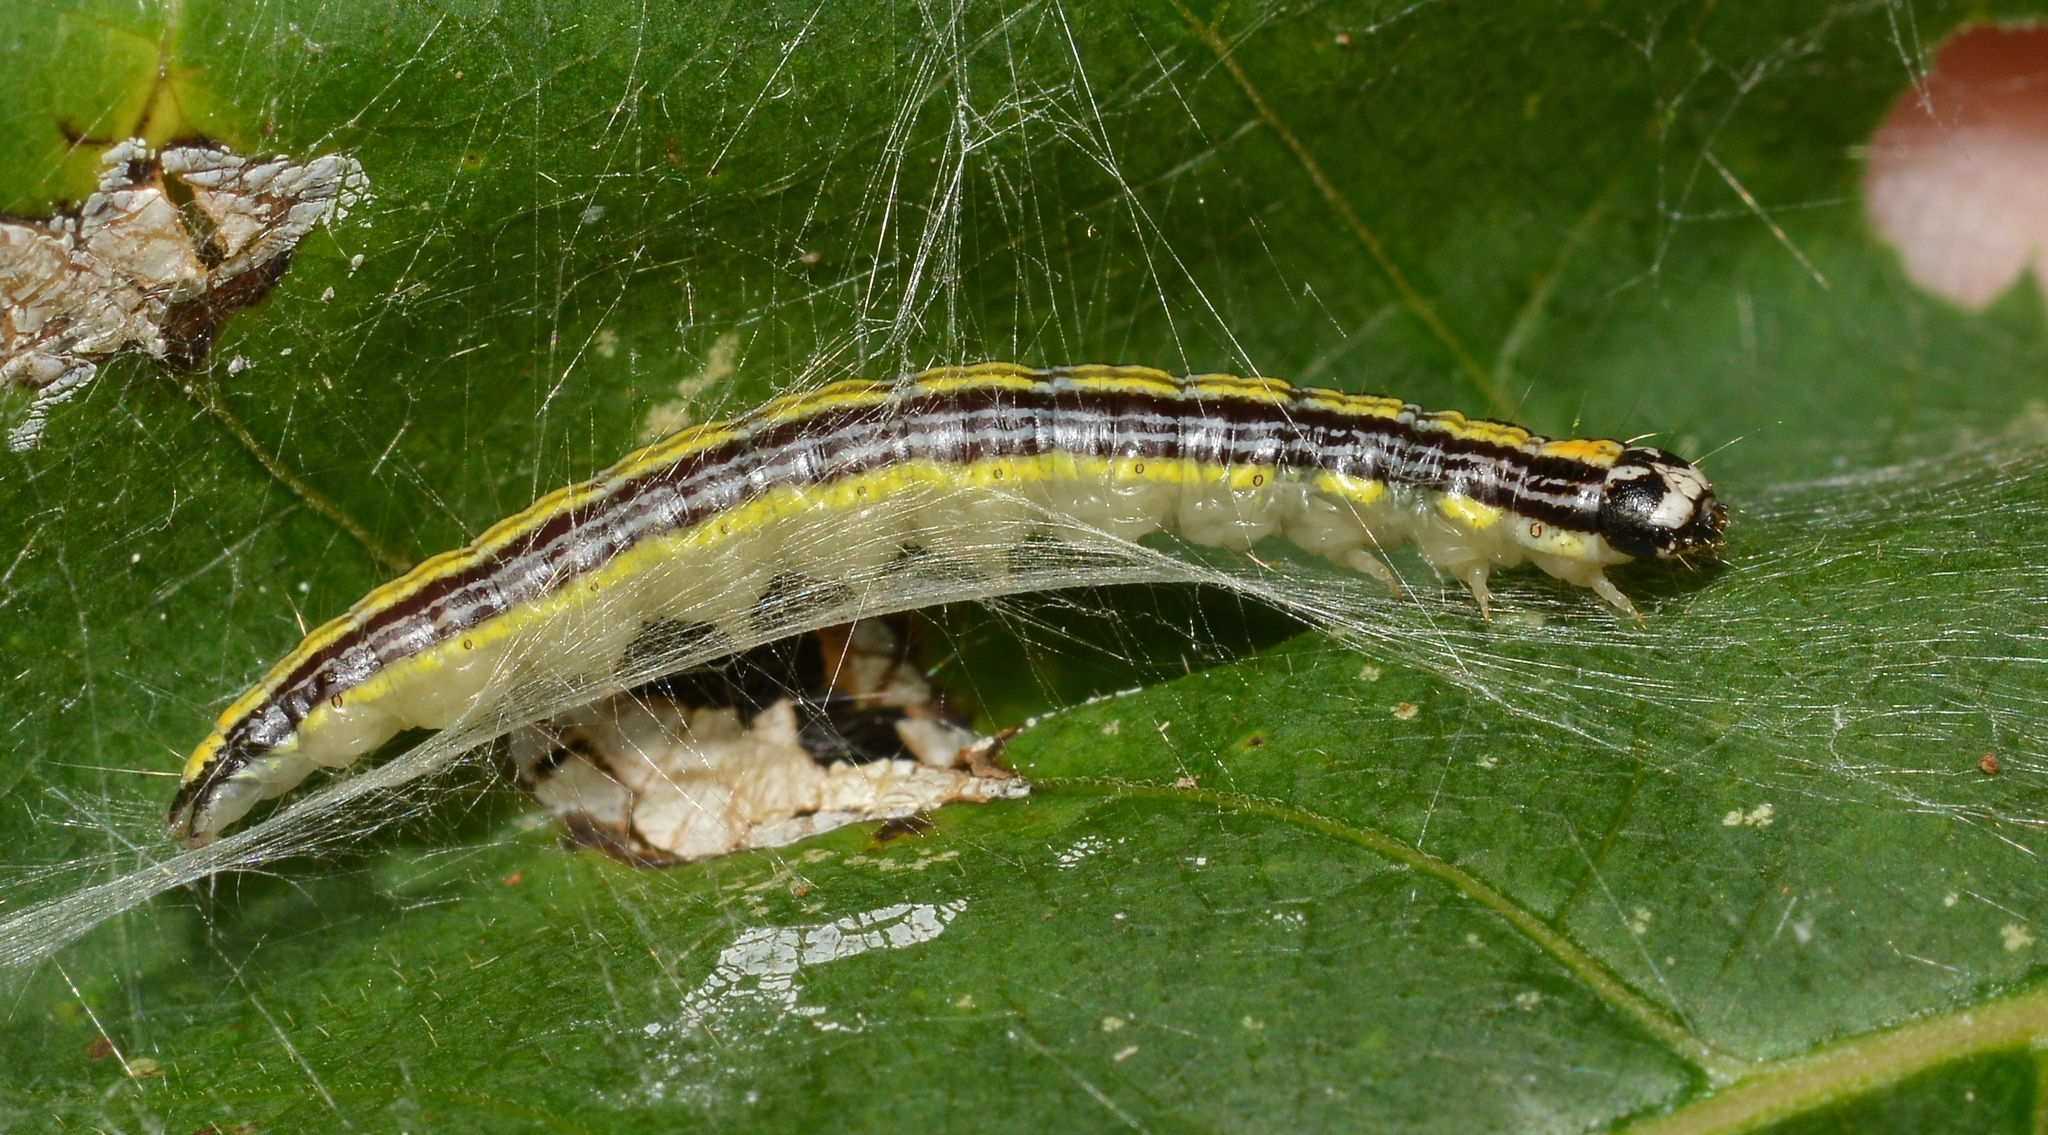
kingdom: Animalia
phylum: Arthropoda
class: Insecta
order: Lepidoptera
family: Pyralidae
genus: Epipaschia
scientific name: Epipaschia superatalis
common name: Dimorphic macalla moth
